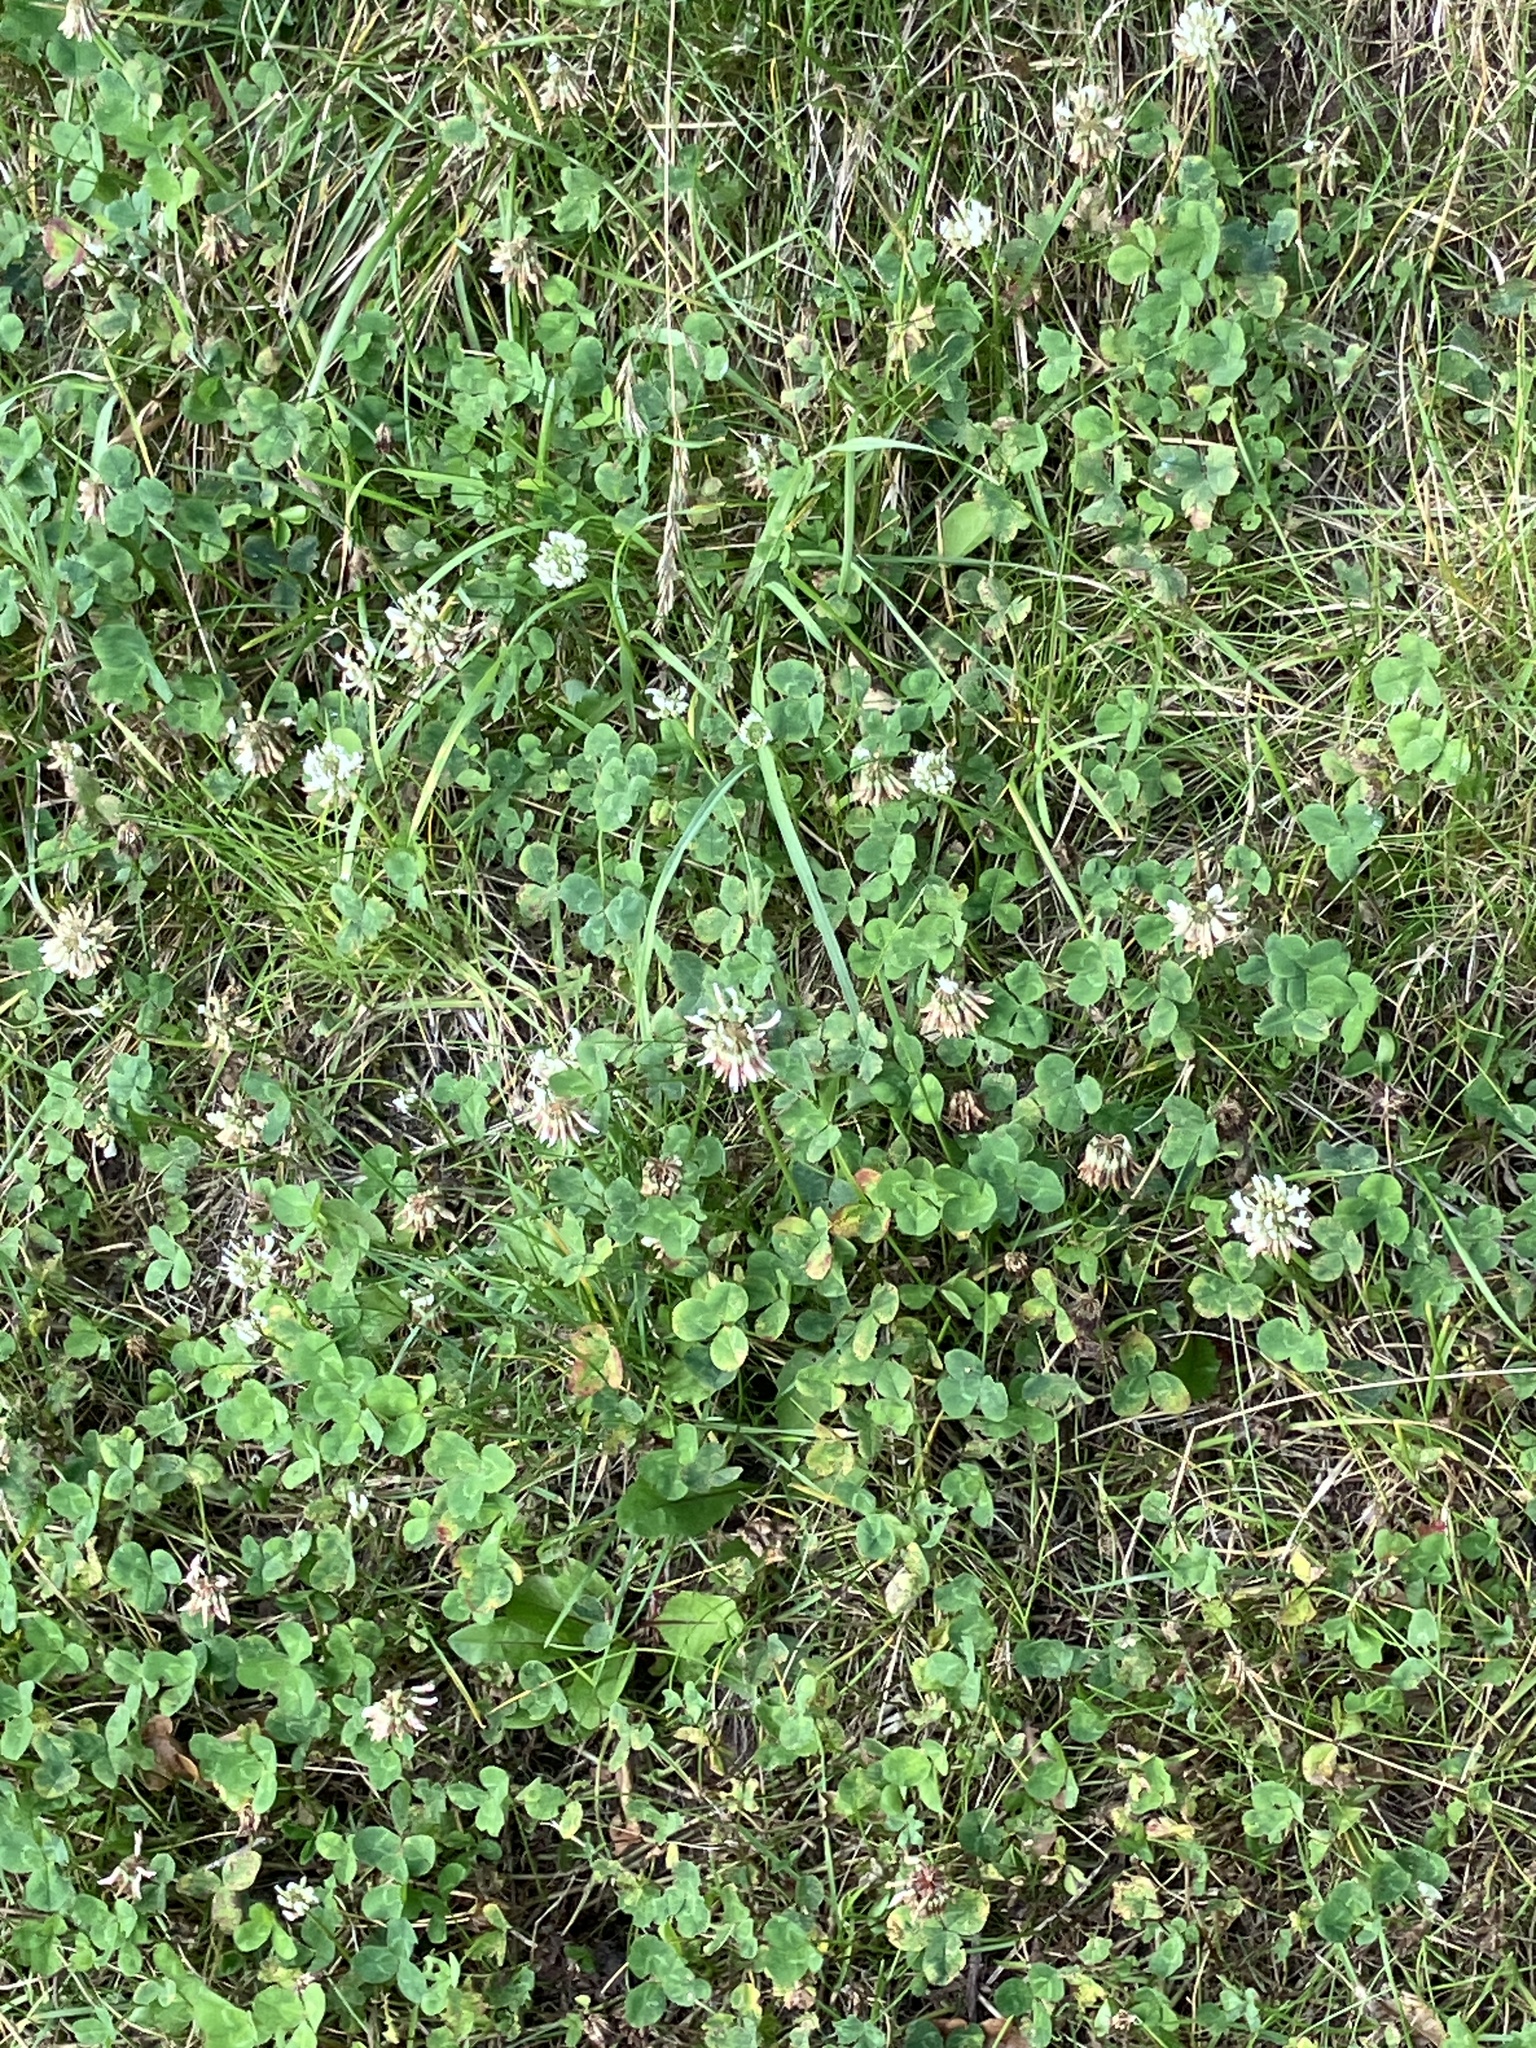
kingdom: Plantae
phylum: Tracheophyta
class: Magnoliopsida
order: Fabales
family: Fabaceae
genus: Trifolium
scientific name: Trifolium repens
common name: White clover
